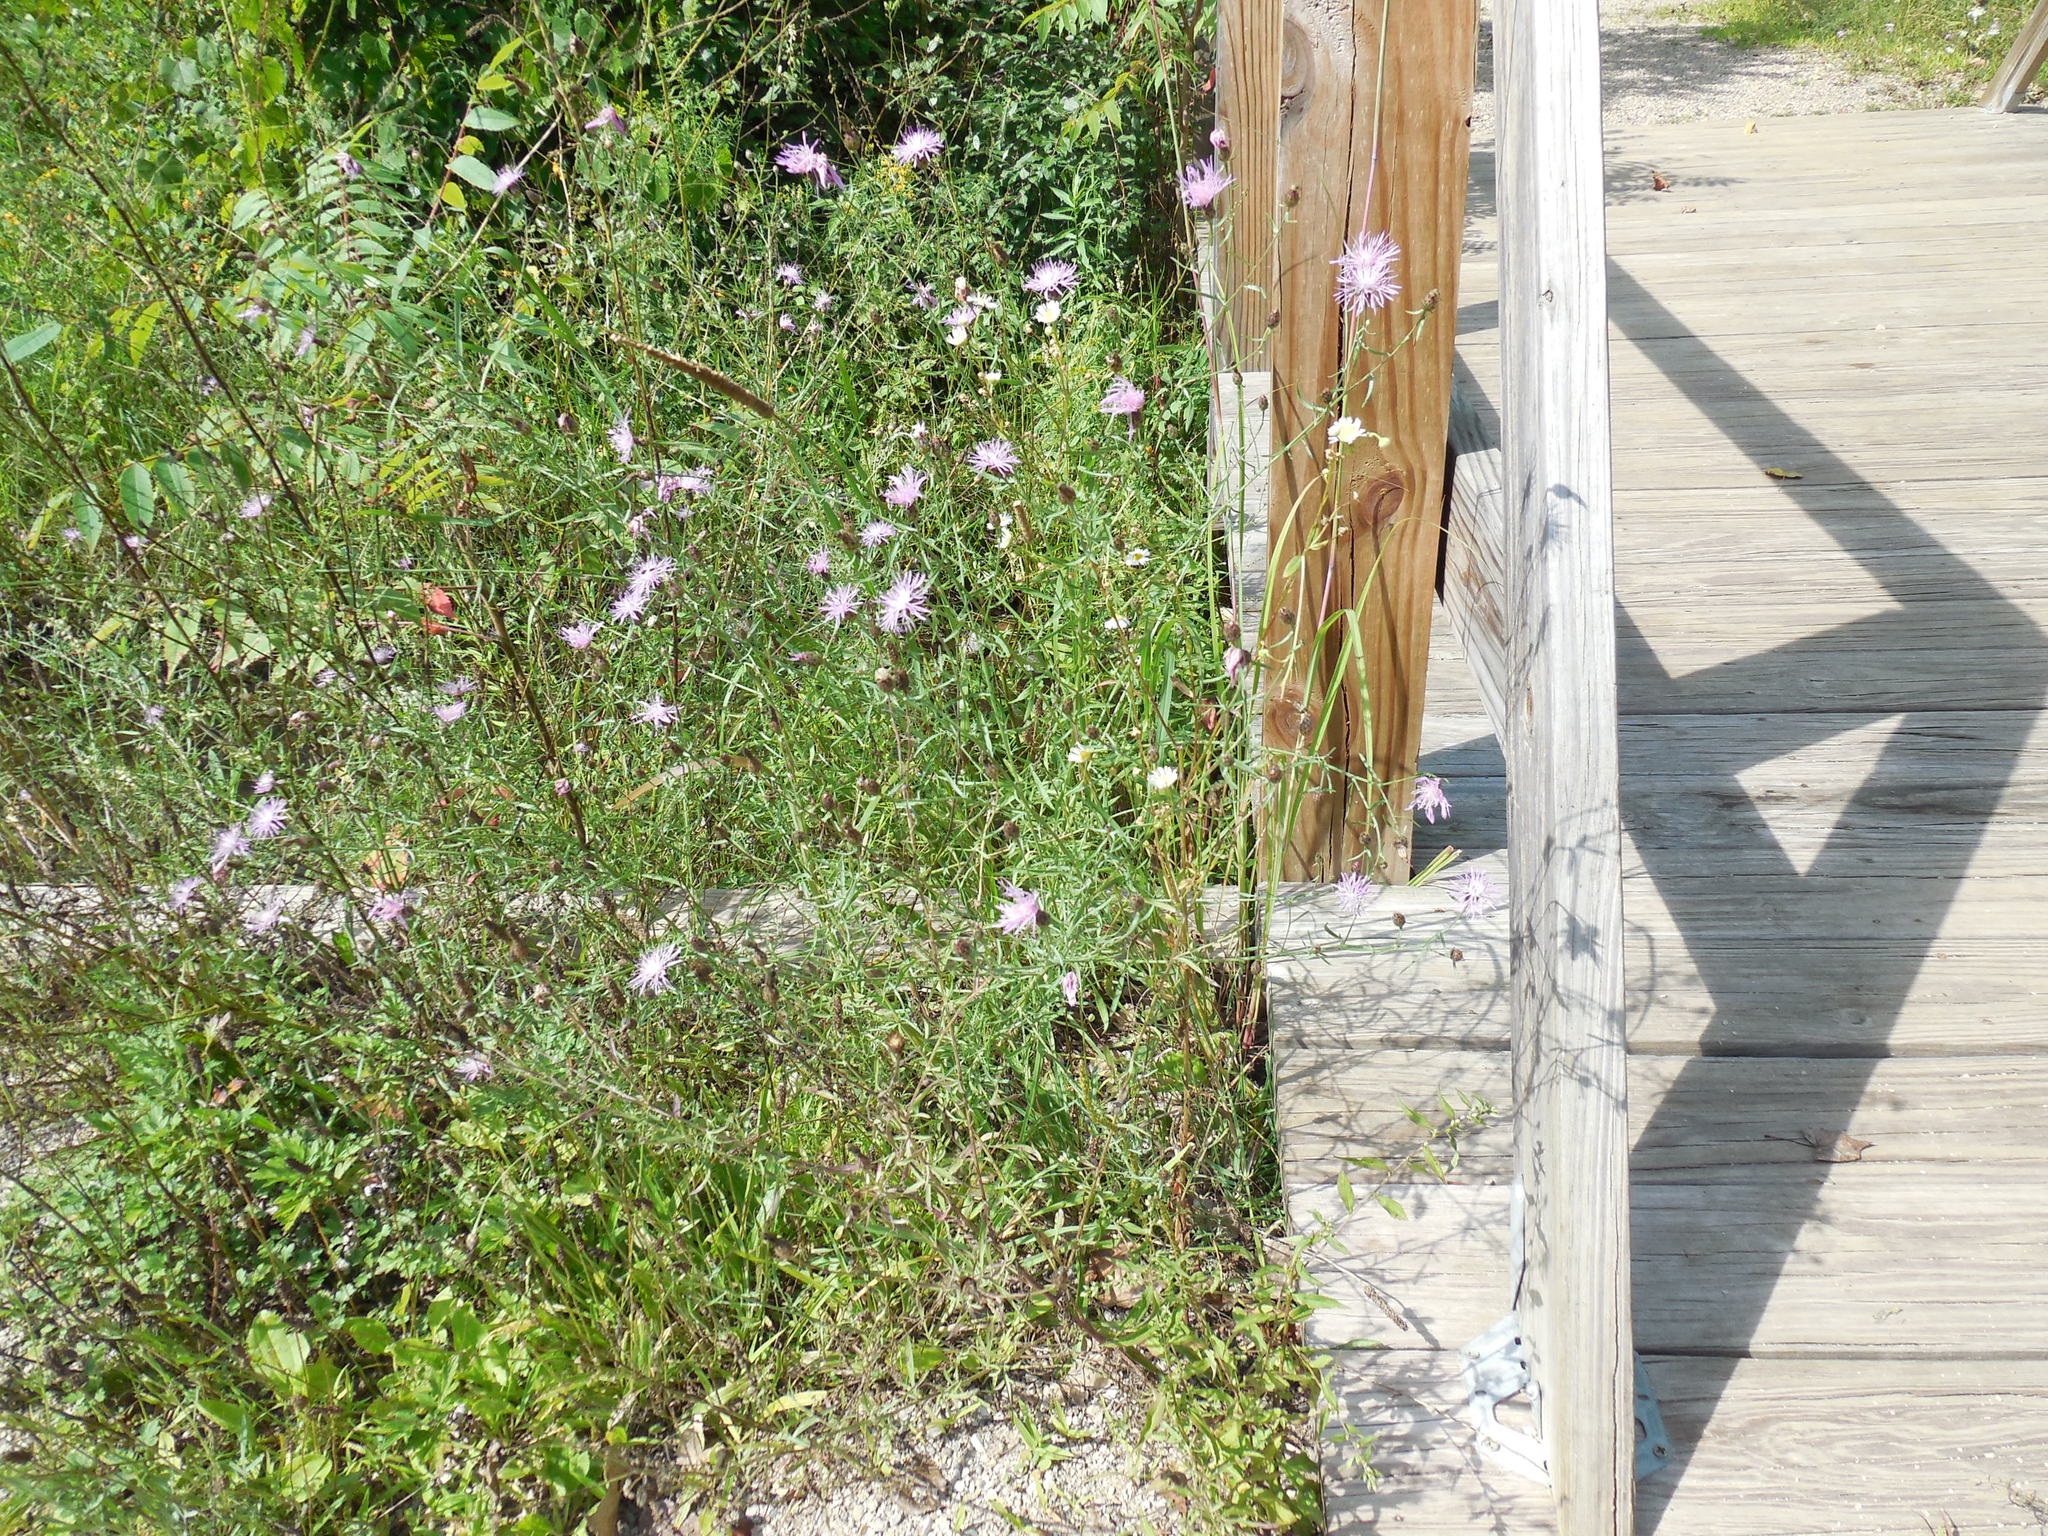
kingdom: Plantae
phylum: Tracheophyta
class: Magnoliopsida
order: Asterales
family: Asteraceae
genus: Centaurea
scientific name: Centaurea stoebe
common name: Spotted knapweed
